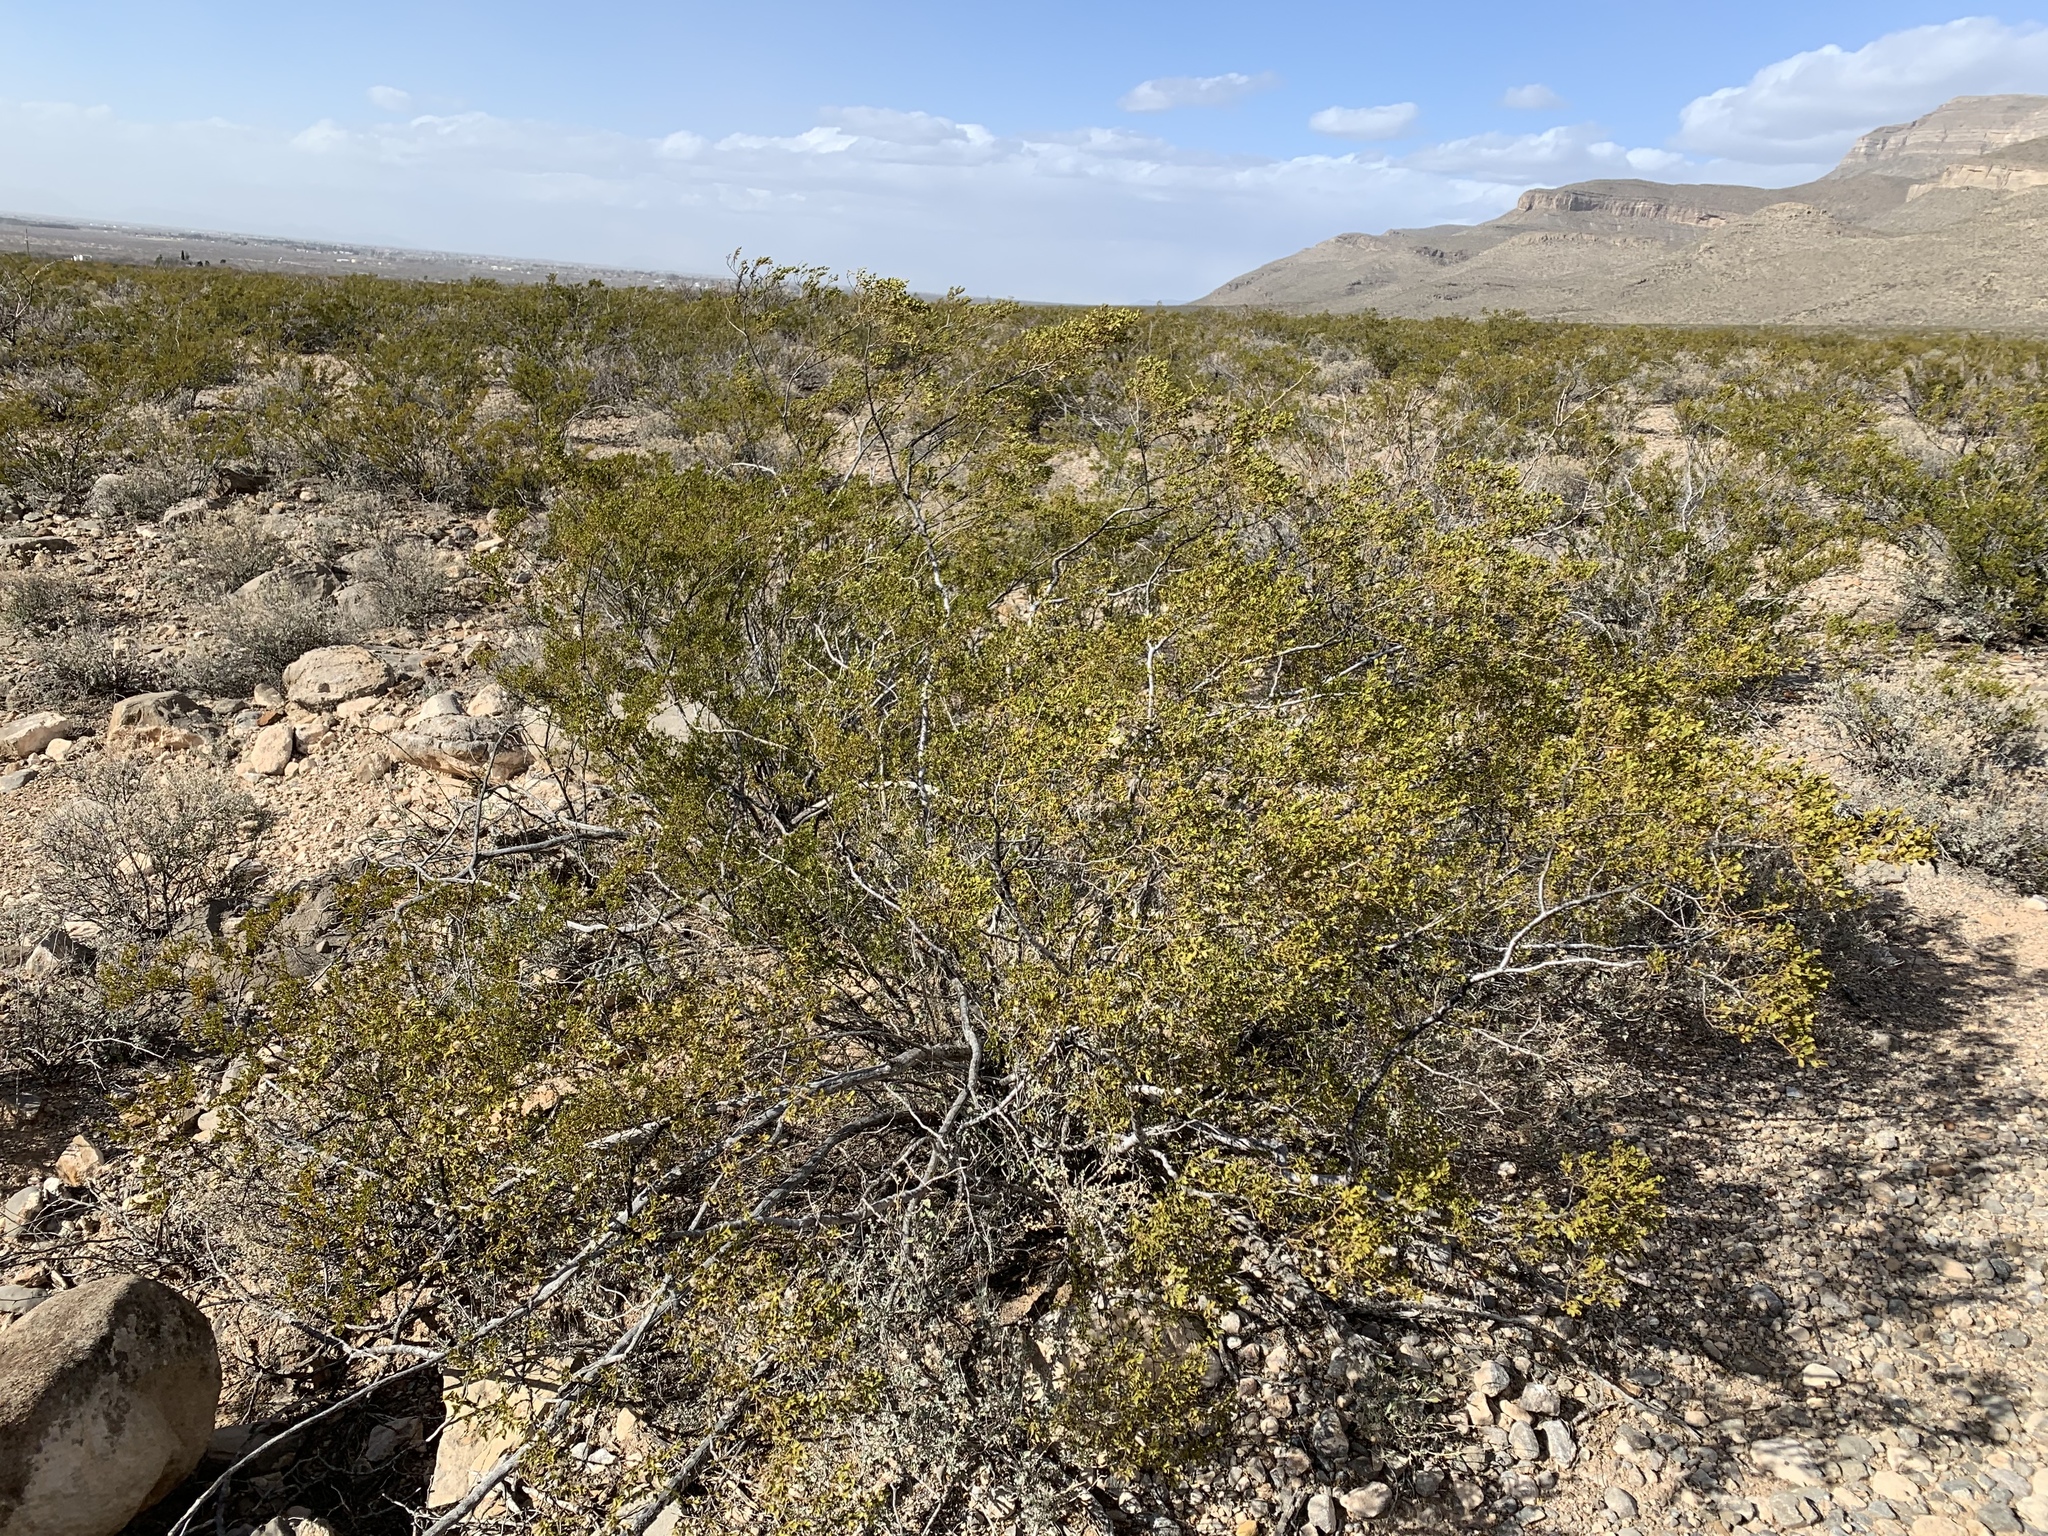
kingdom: Plantae
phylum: Tracheophyta
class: Magnoliopsida
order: Zygophyllales
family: Zygophyllaceae
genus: Larrea
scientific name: Larrea tridentata
